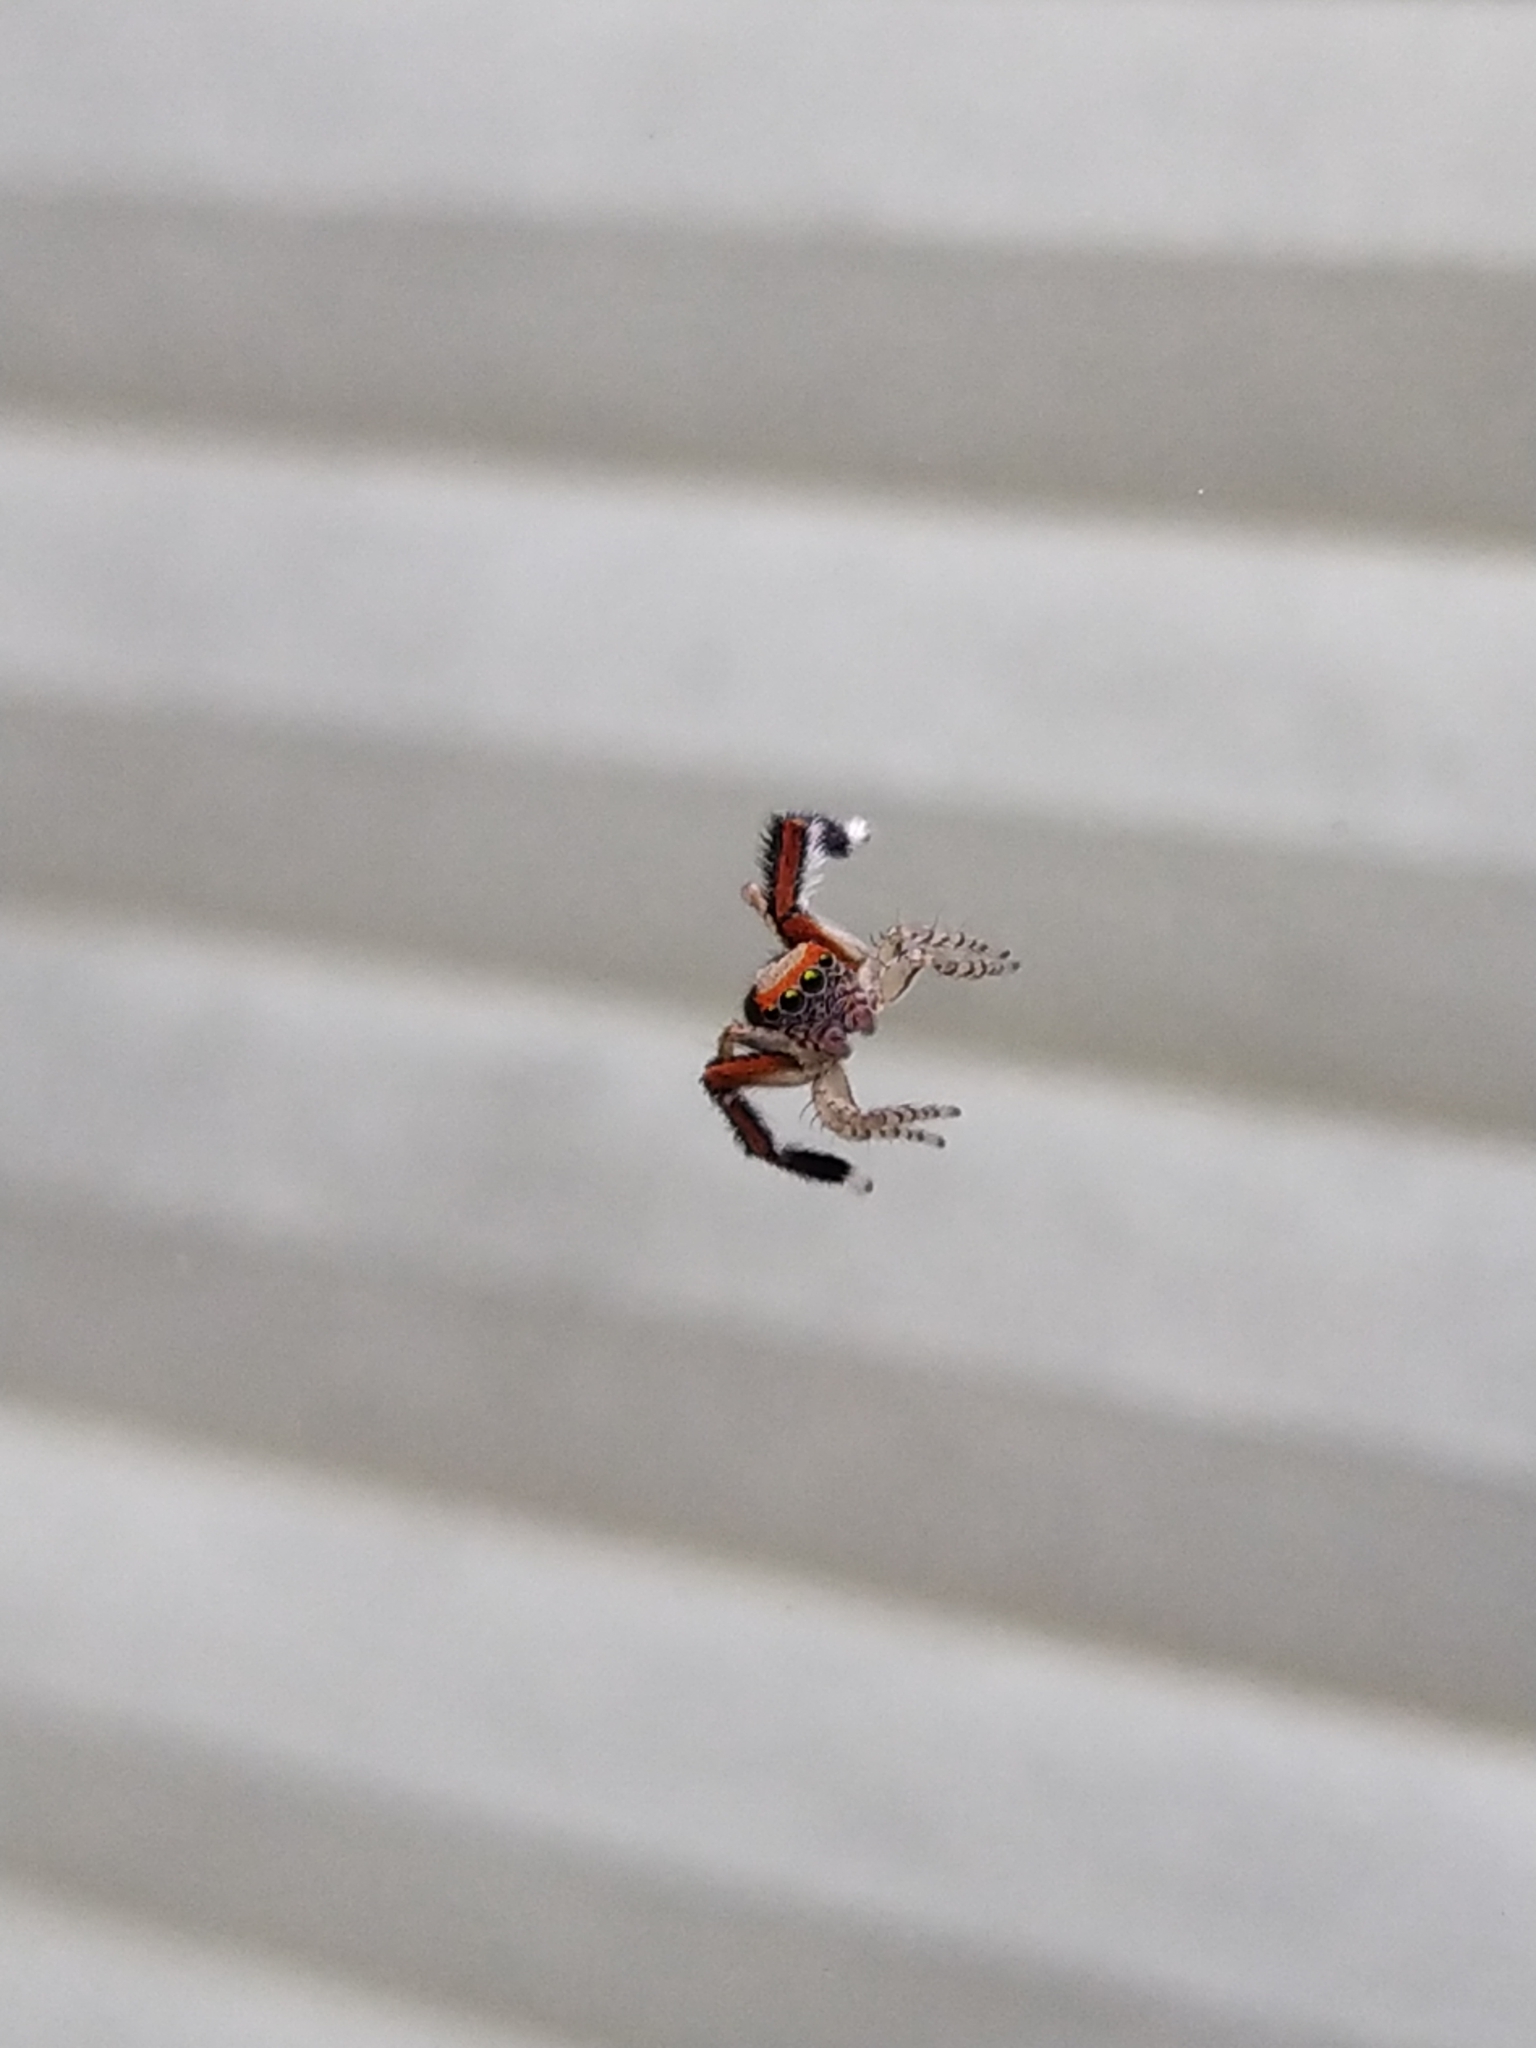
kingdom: Animalia
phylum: Arthropoda
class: Arachnida
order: Araneae
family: Salticidae
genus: Saitis
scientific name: Saitis barbipes
